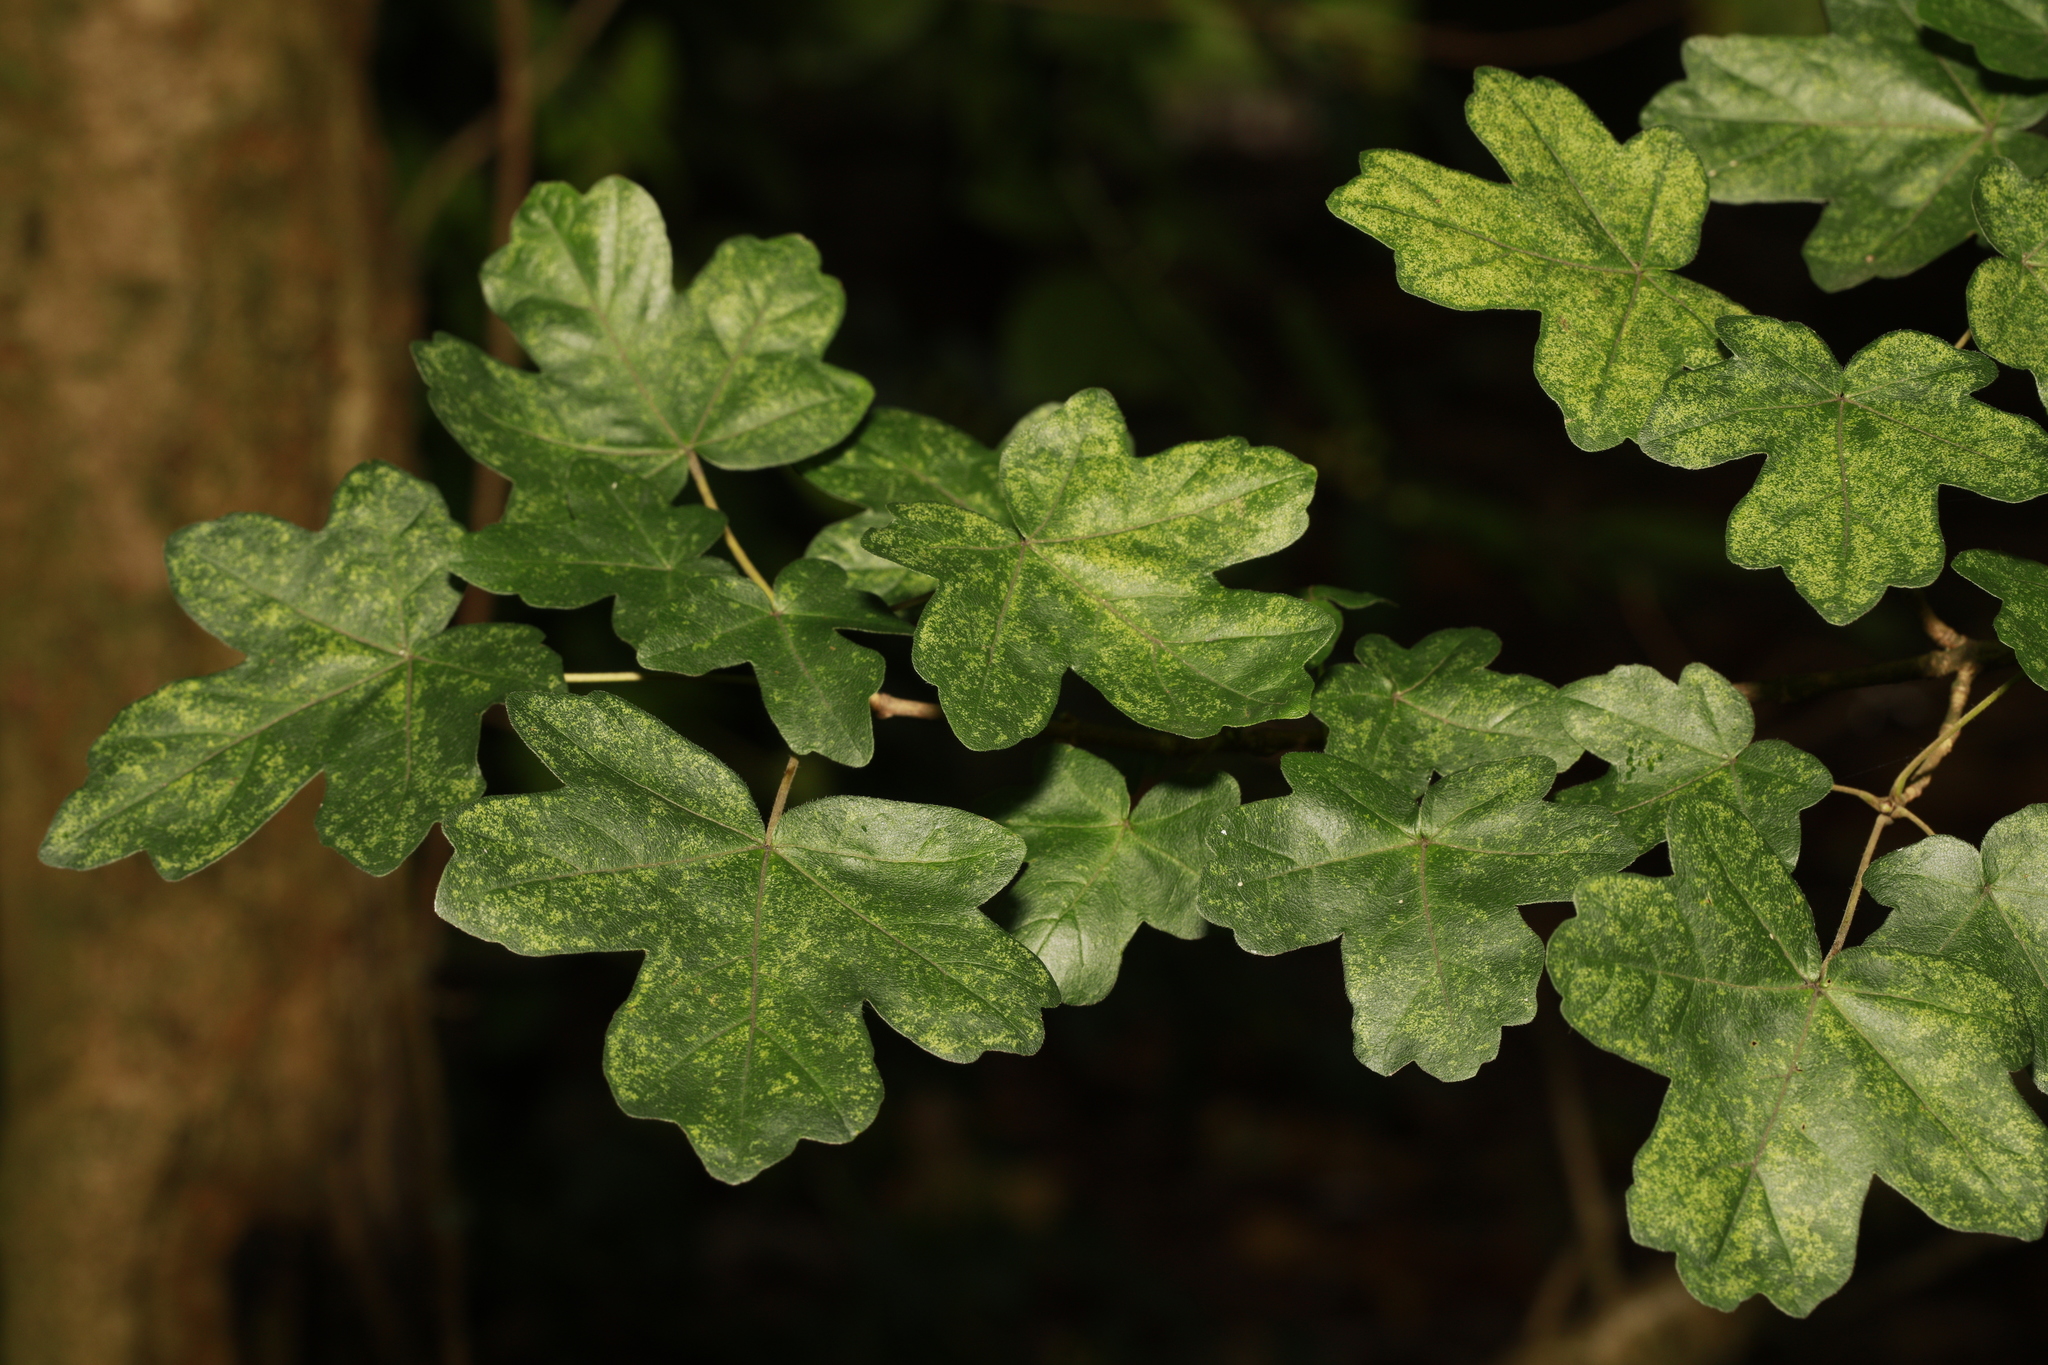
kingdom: Plantae
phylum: Tracheophyta
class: Magnoliopsida
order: Sapindales
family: Sapindaceae
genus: Acer
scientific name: Acer campestre
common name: Field maple
